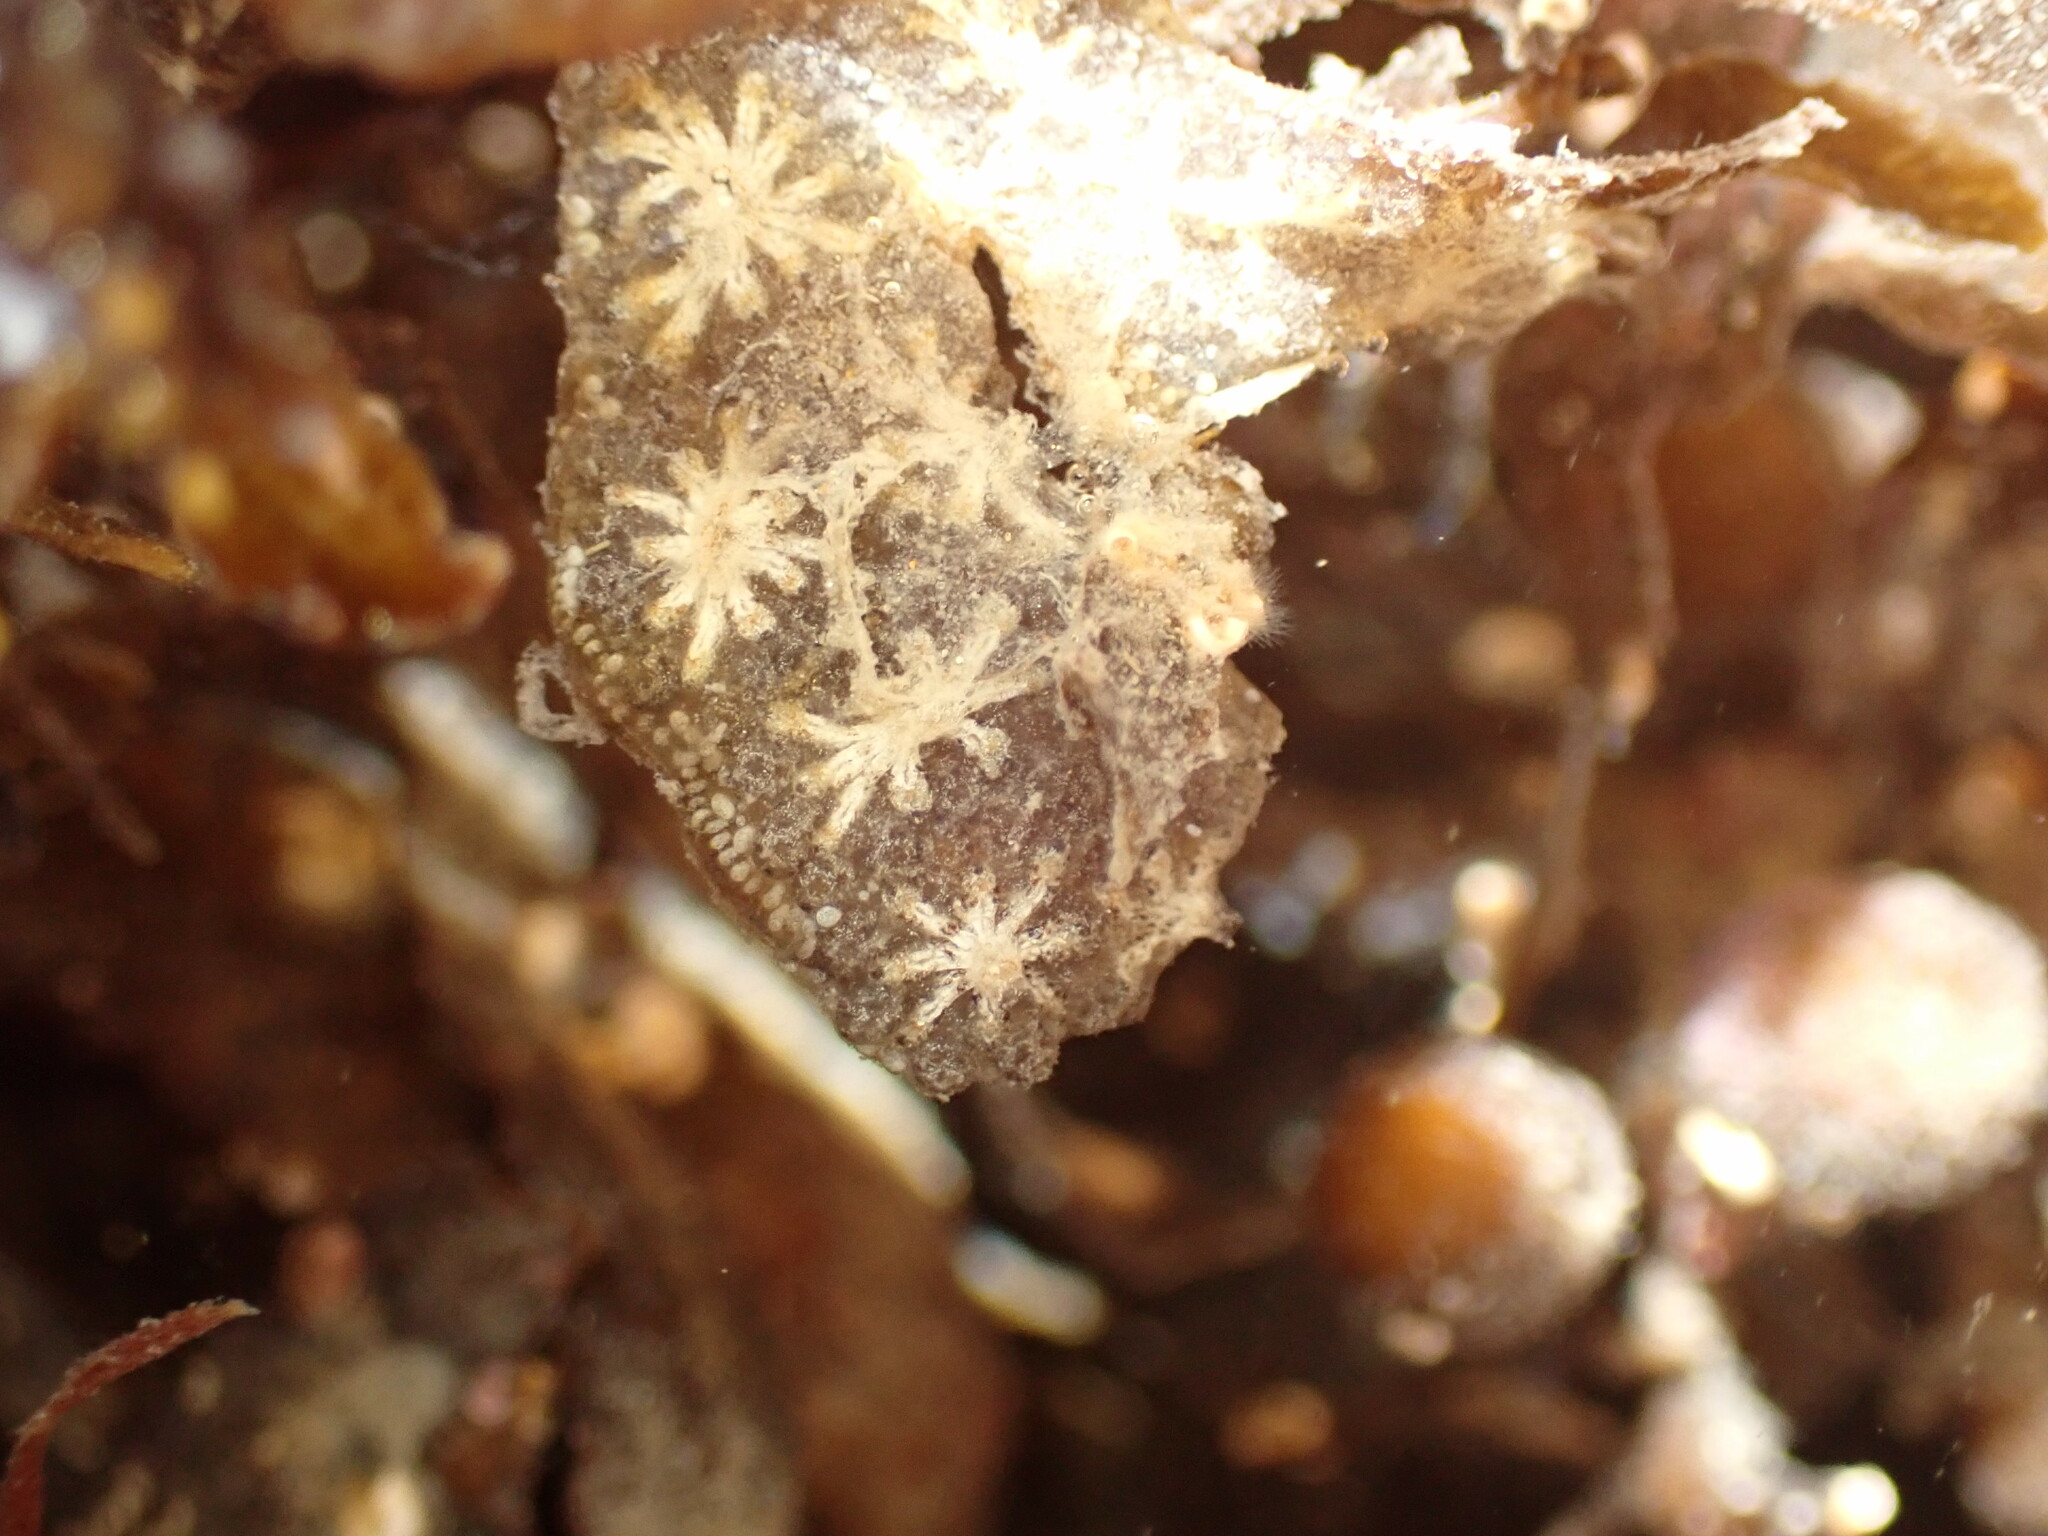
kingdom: Animalia
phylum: Chordata
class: Ascidiacea
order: Stolidobranchia
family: Styelidae
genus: Botryllus
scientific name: Botryllus schlosseri
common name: Golden star tunicate
